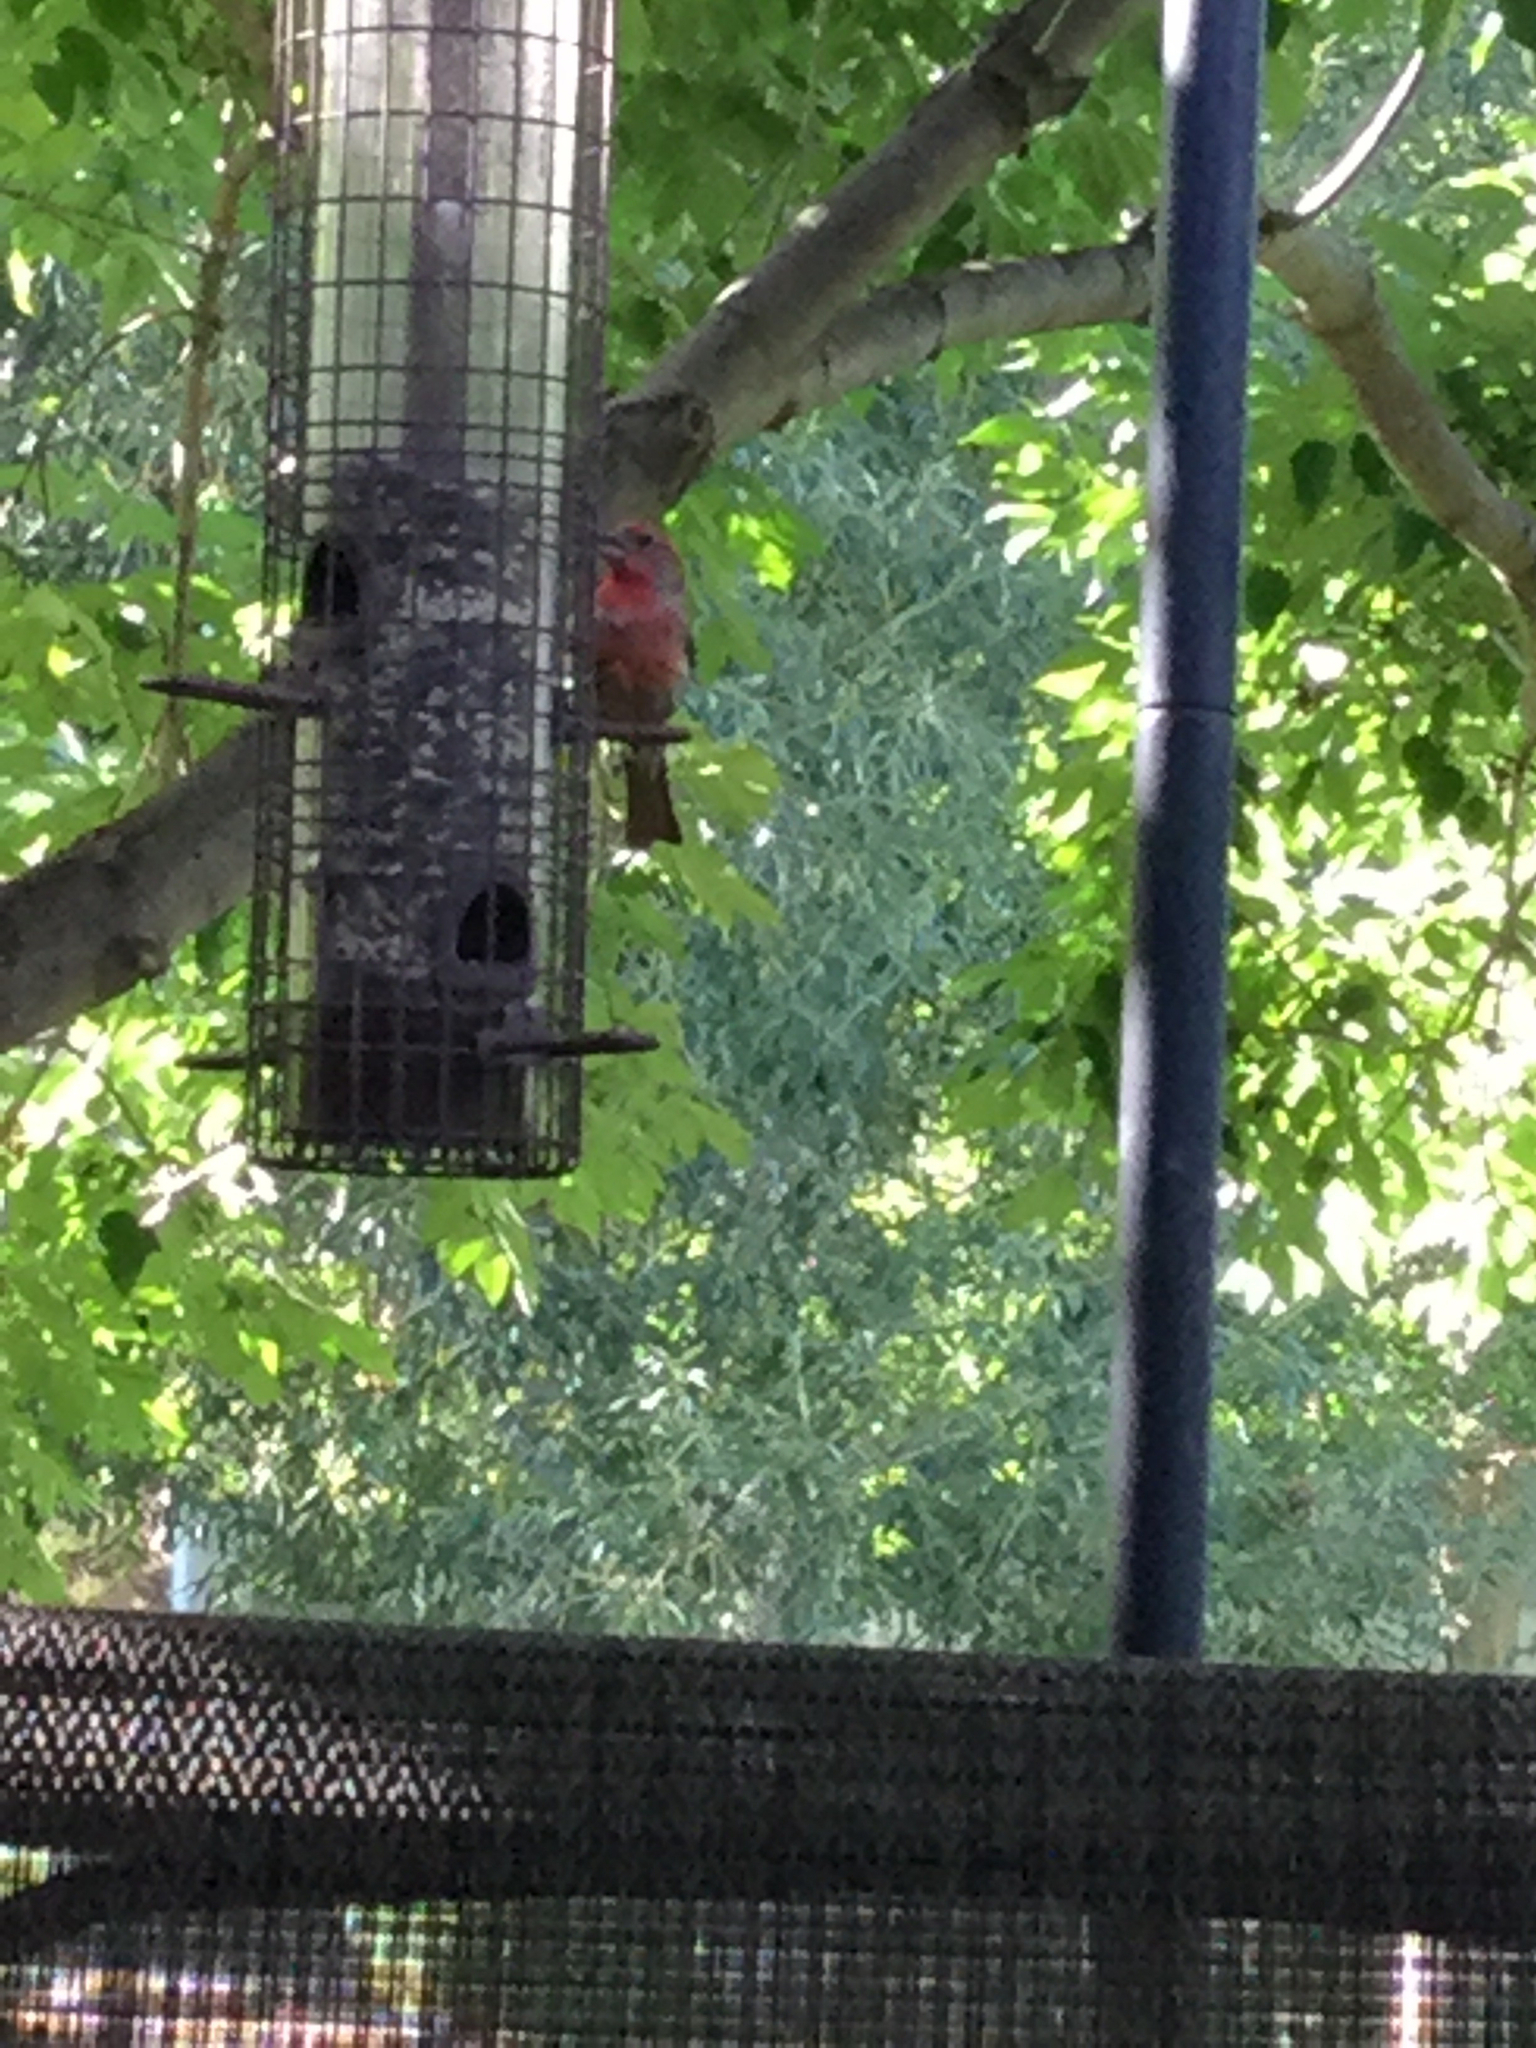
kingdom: Animalia
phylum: Chordata
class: Aves
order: Passeriformes
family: Fringillidae
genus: Haemorhous
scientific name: Haemorhous mexicanus
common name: House finch
